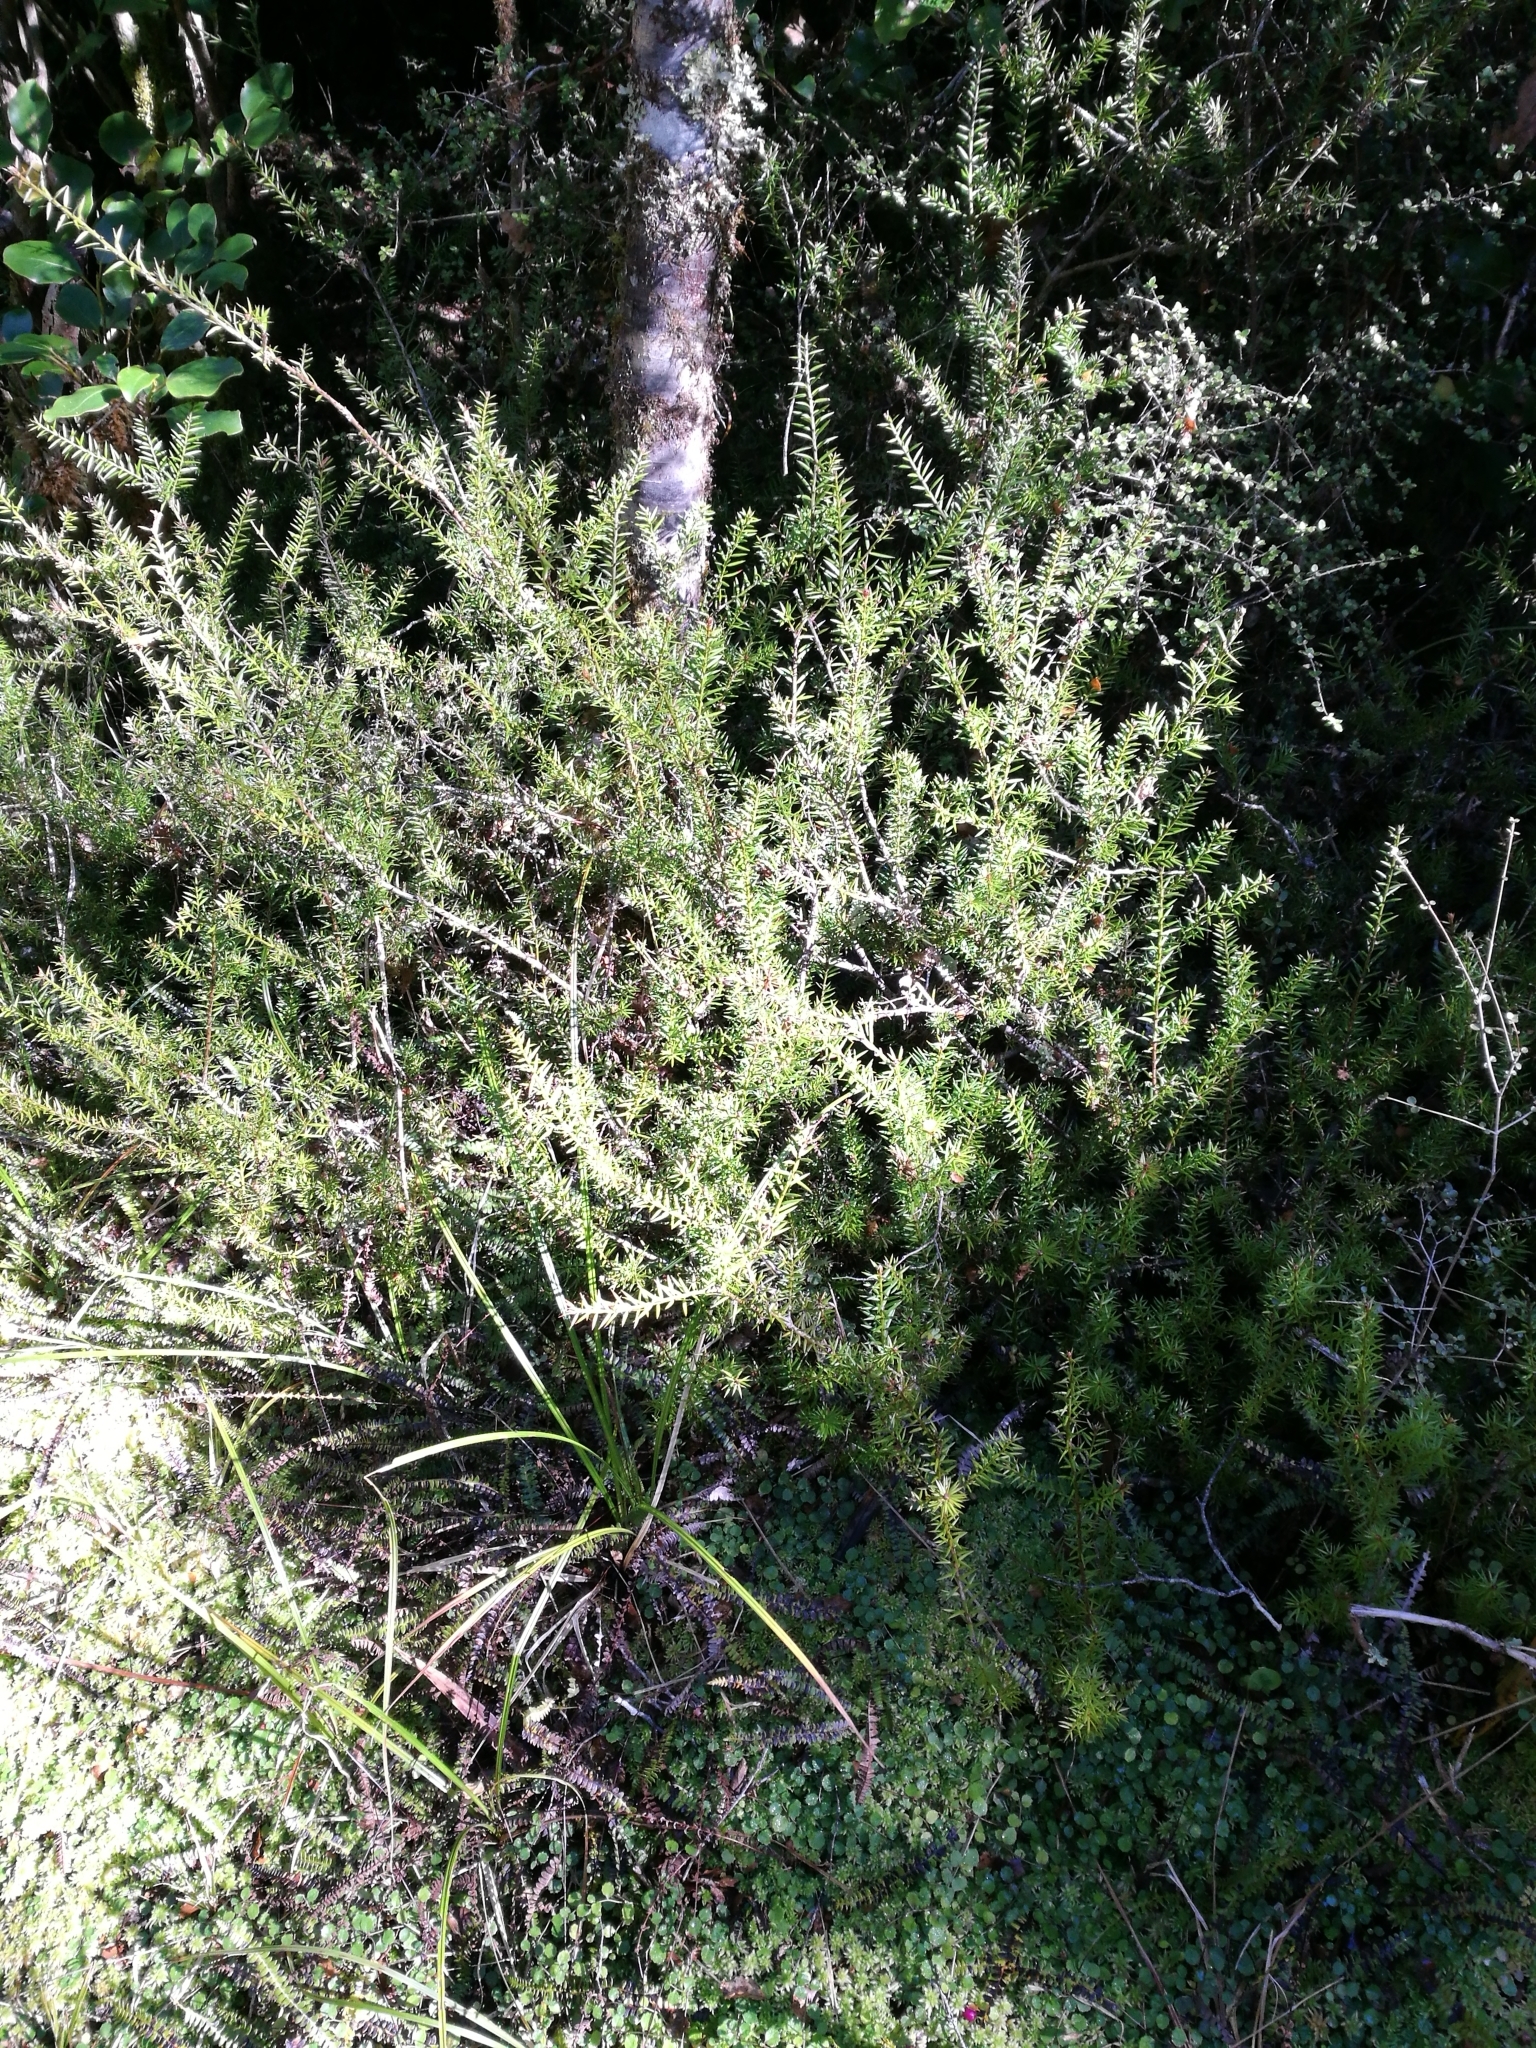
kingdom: Plantae
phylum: Tracheophyta
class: Magnoliopsida
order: Ericales
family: Ericaceae
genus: Leptecophylla
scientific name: Leptecophylla juniperina
